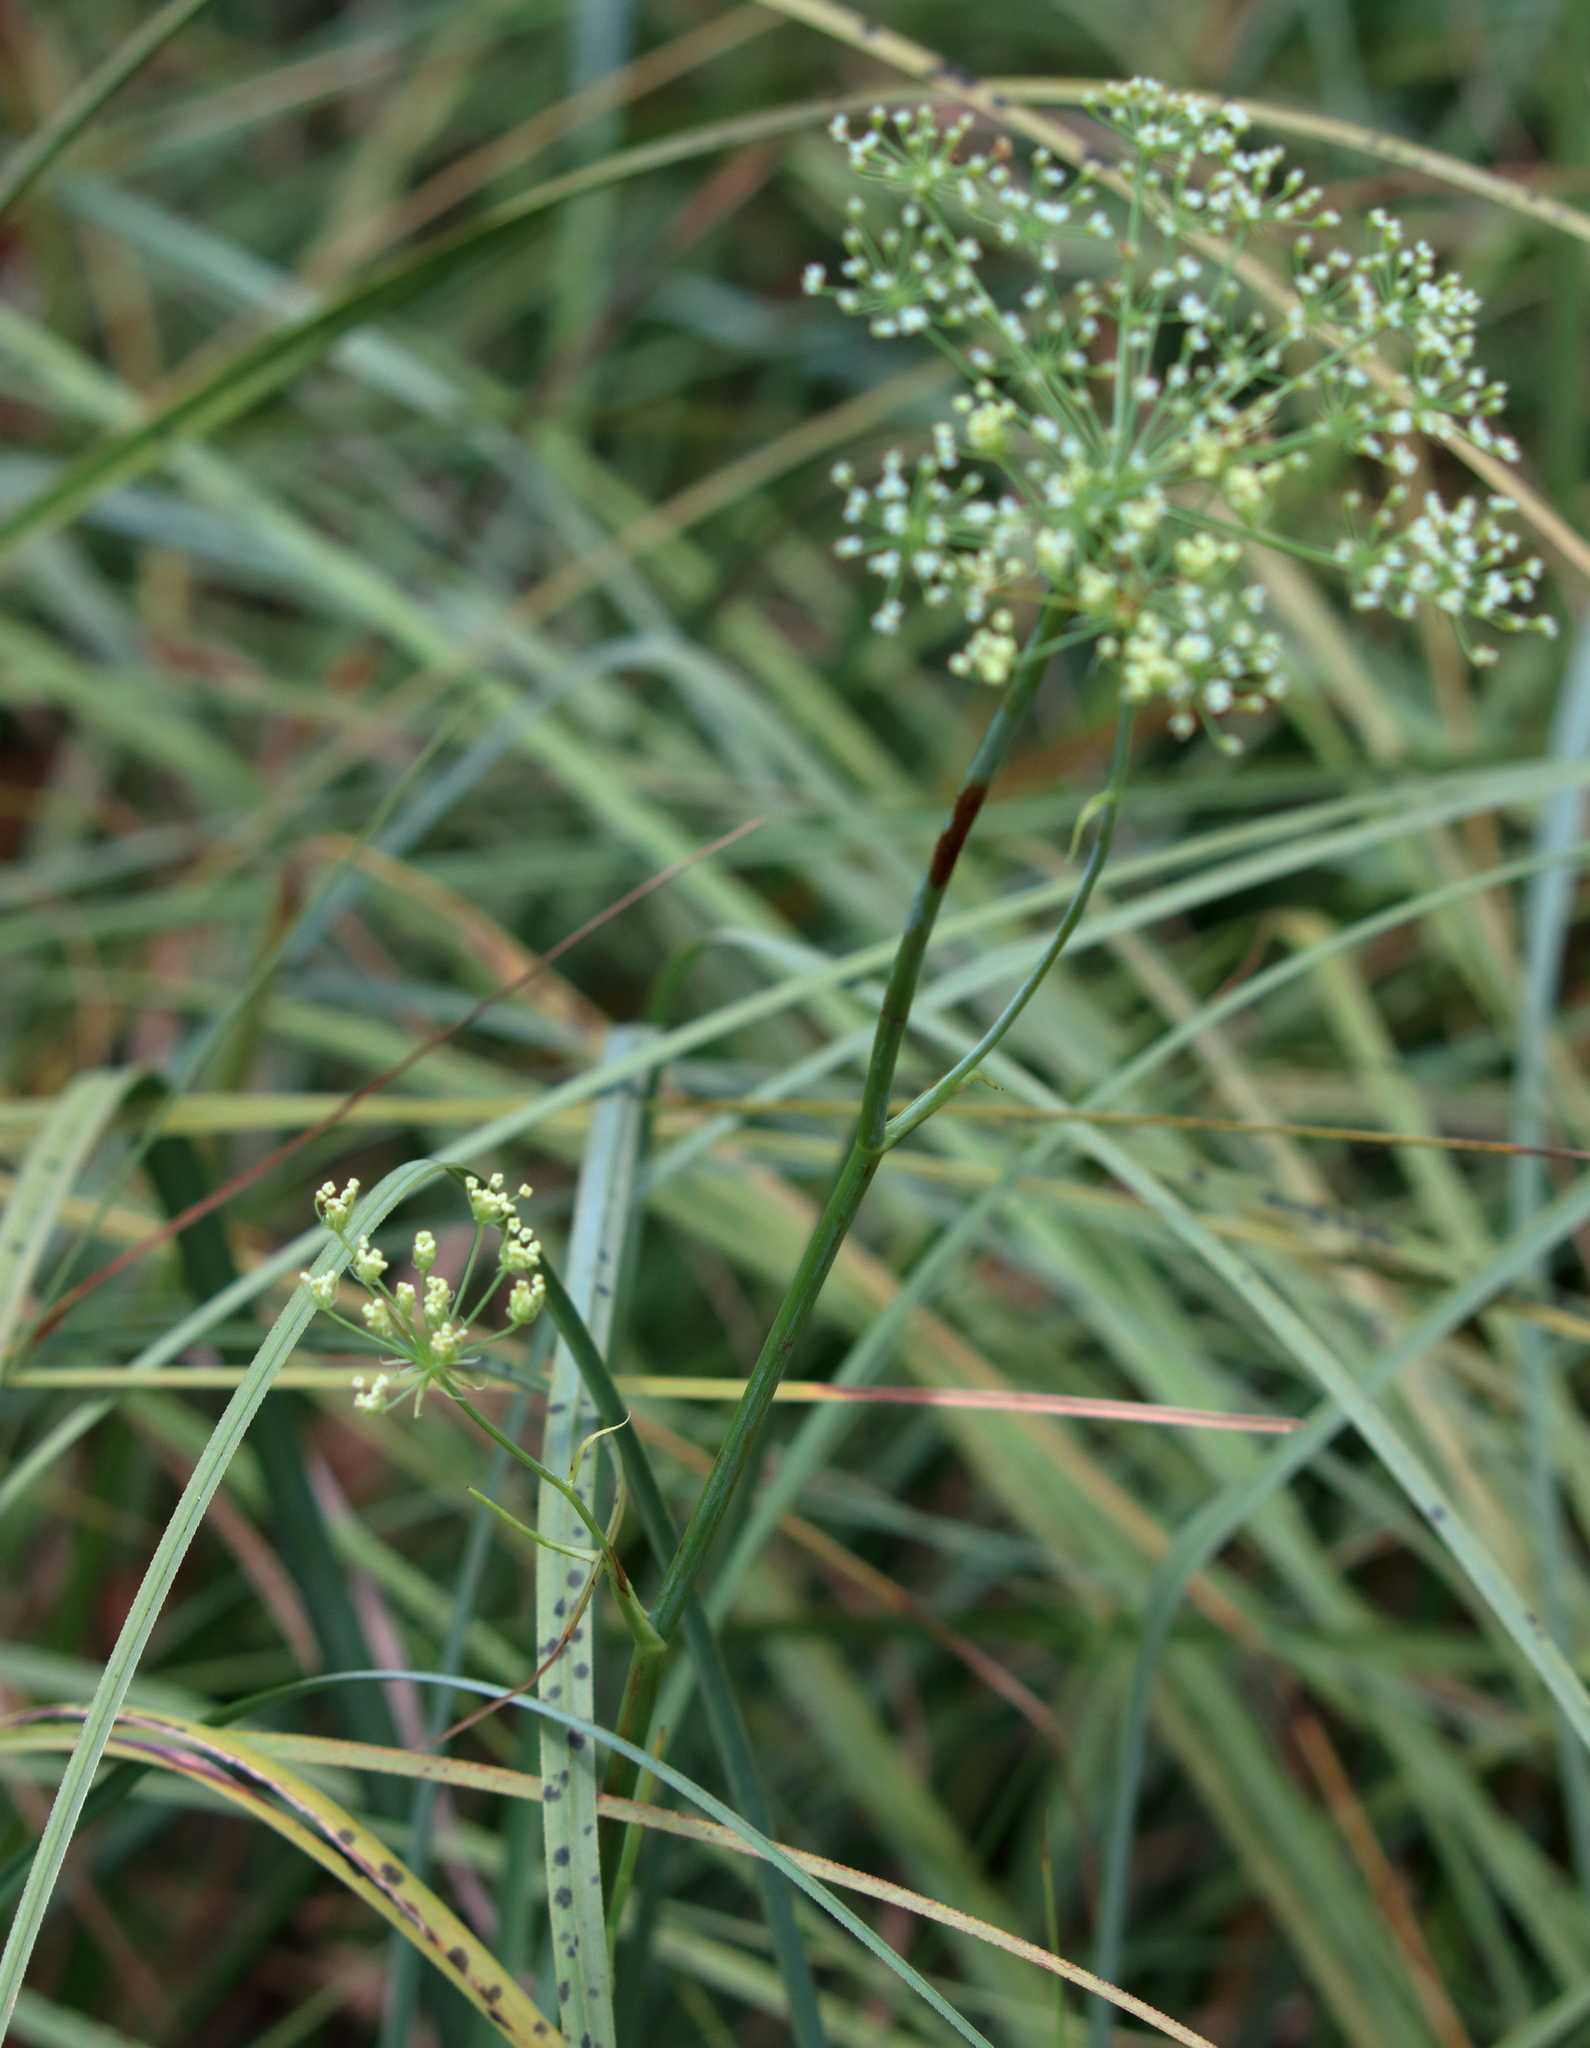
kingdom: Plantae
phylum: Tracheophyta
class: Magnoliopsida
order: Apiales
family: Apiaceae
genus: Tiedemannia
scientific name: Tiedemannia filiformis
